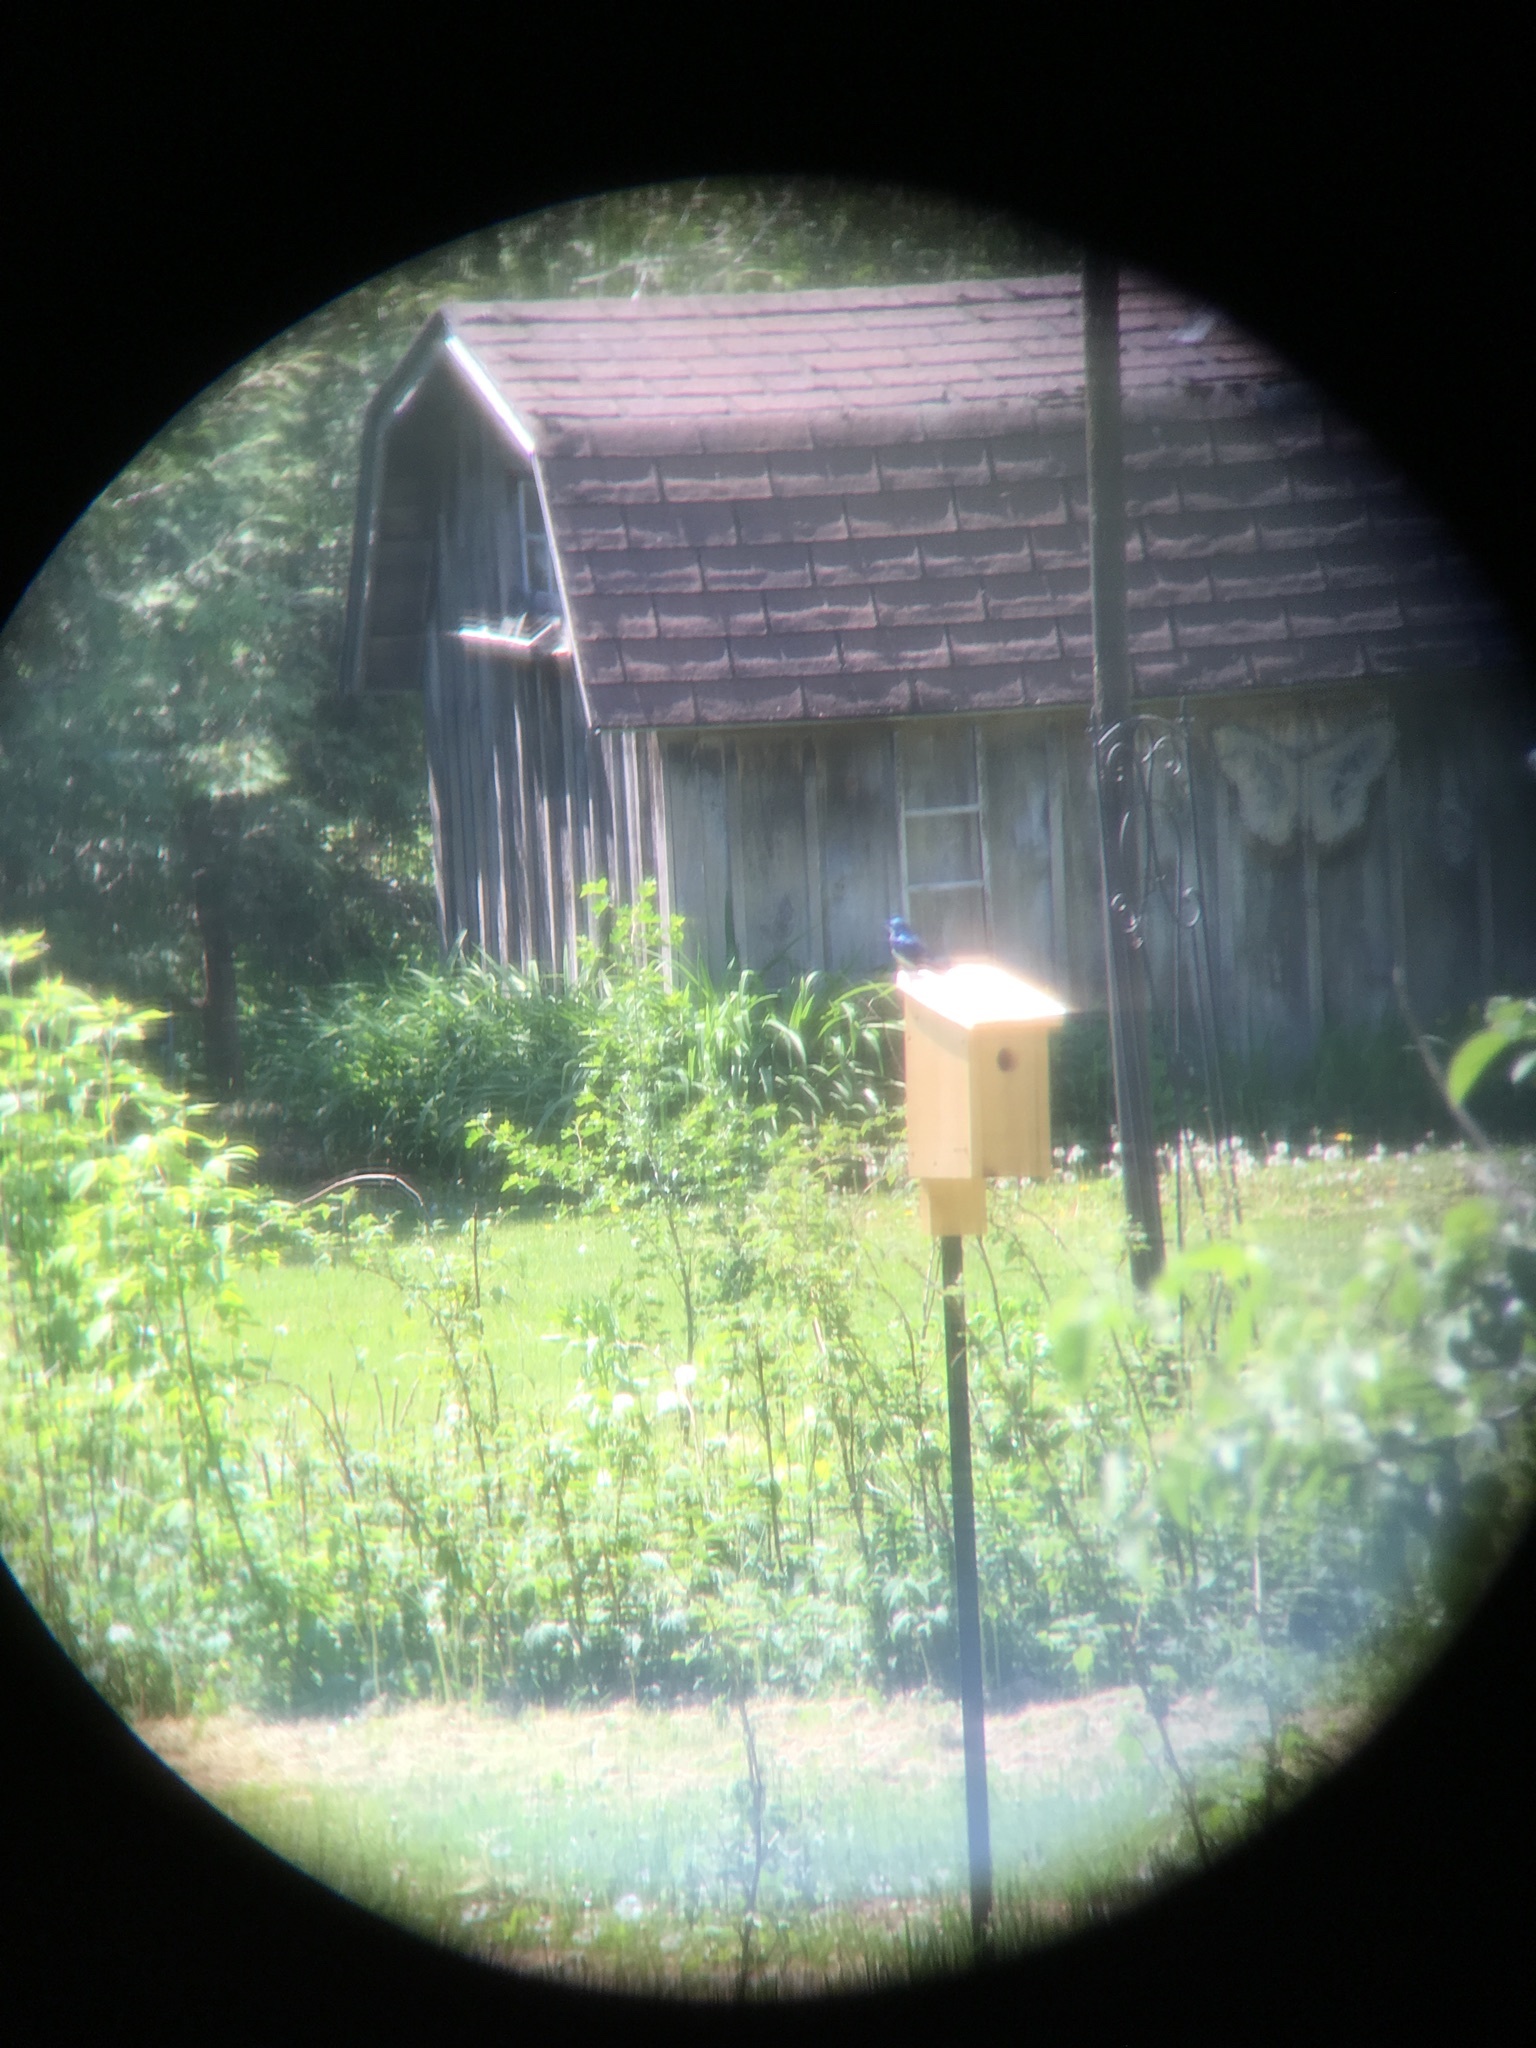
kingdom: Animalia
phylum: Chordata
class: Aves
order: Passeriformes
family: Hirundinidae
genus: Tachycineta
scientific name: Tachycineta bicolor
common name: Tree swallow
